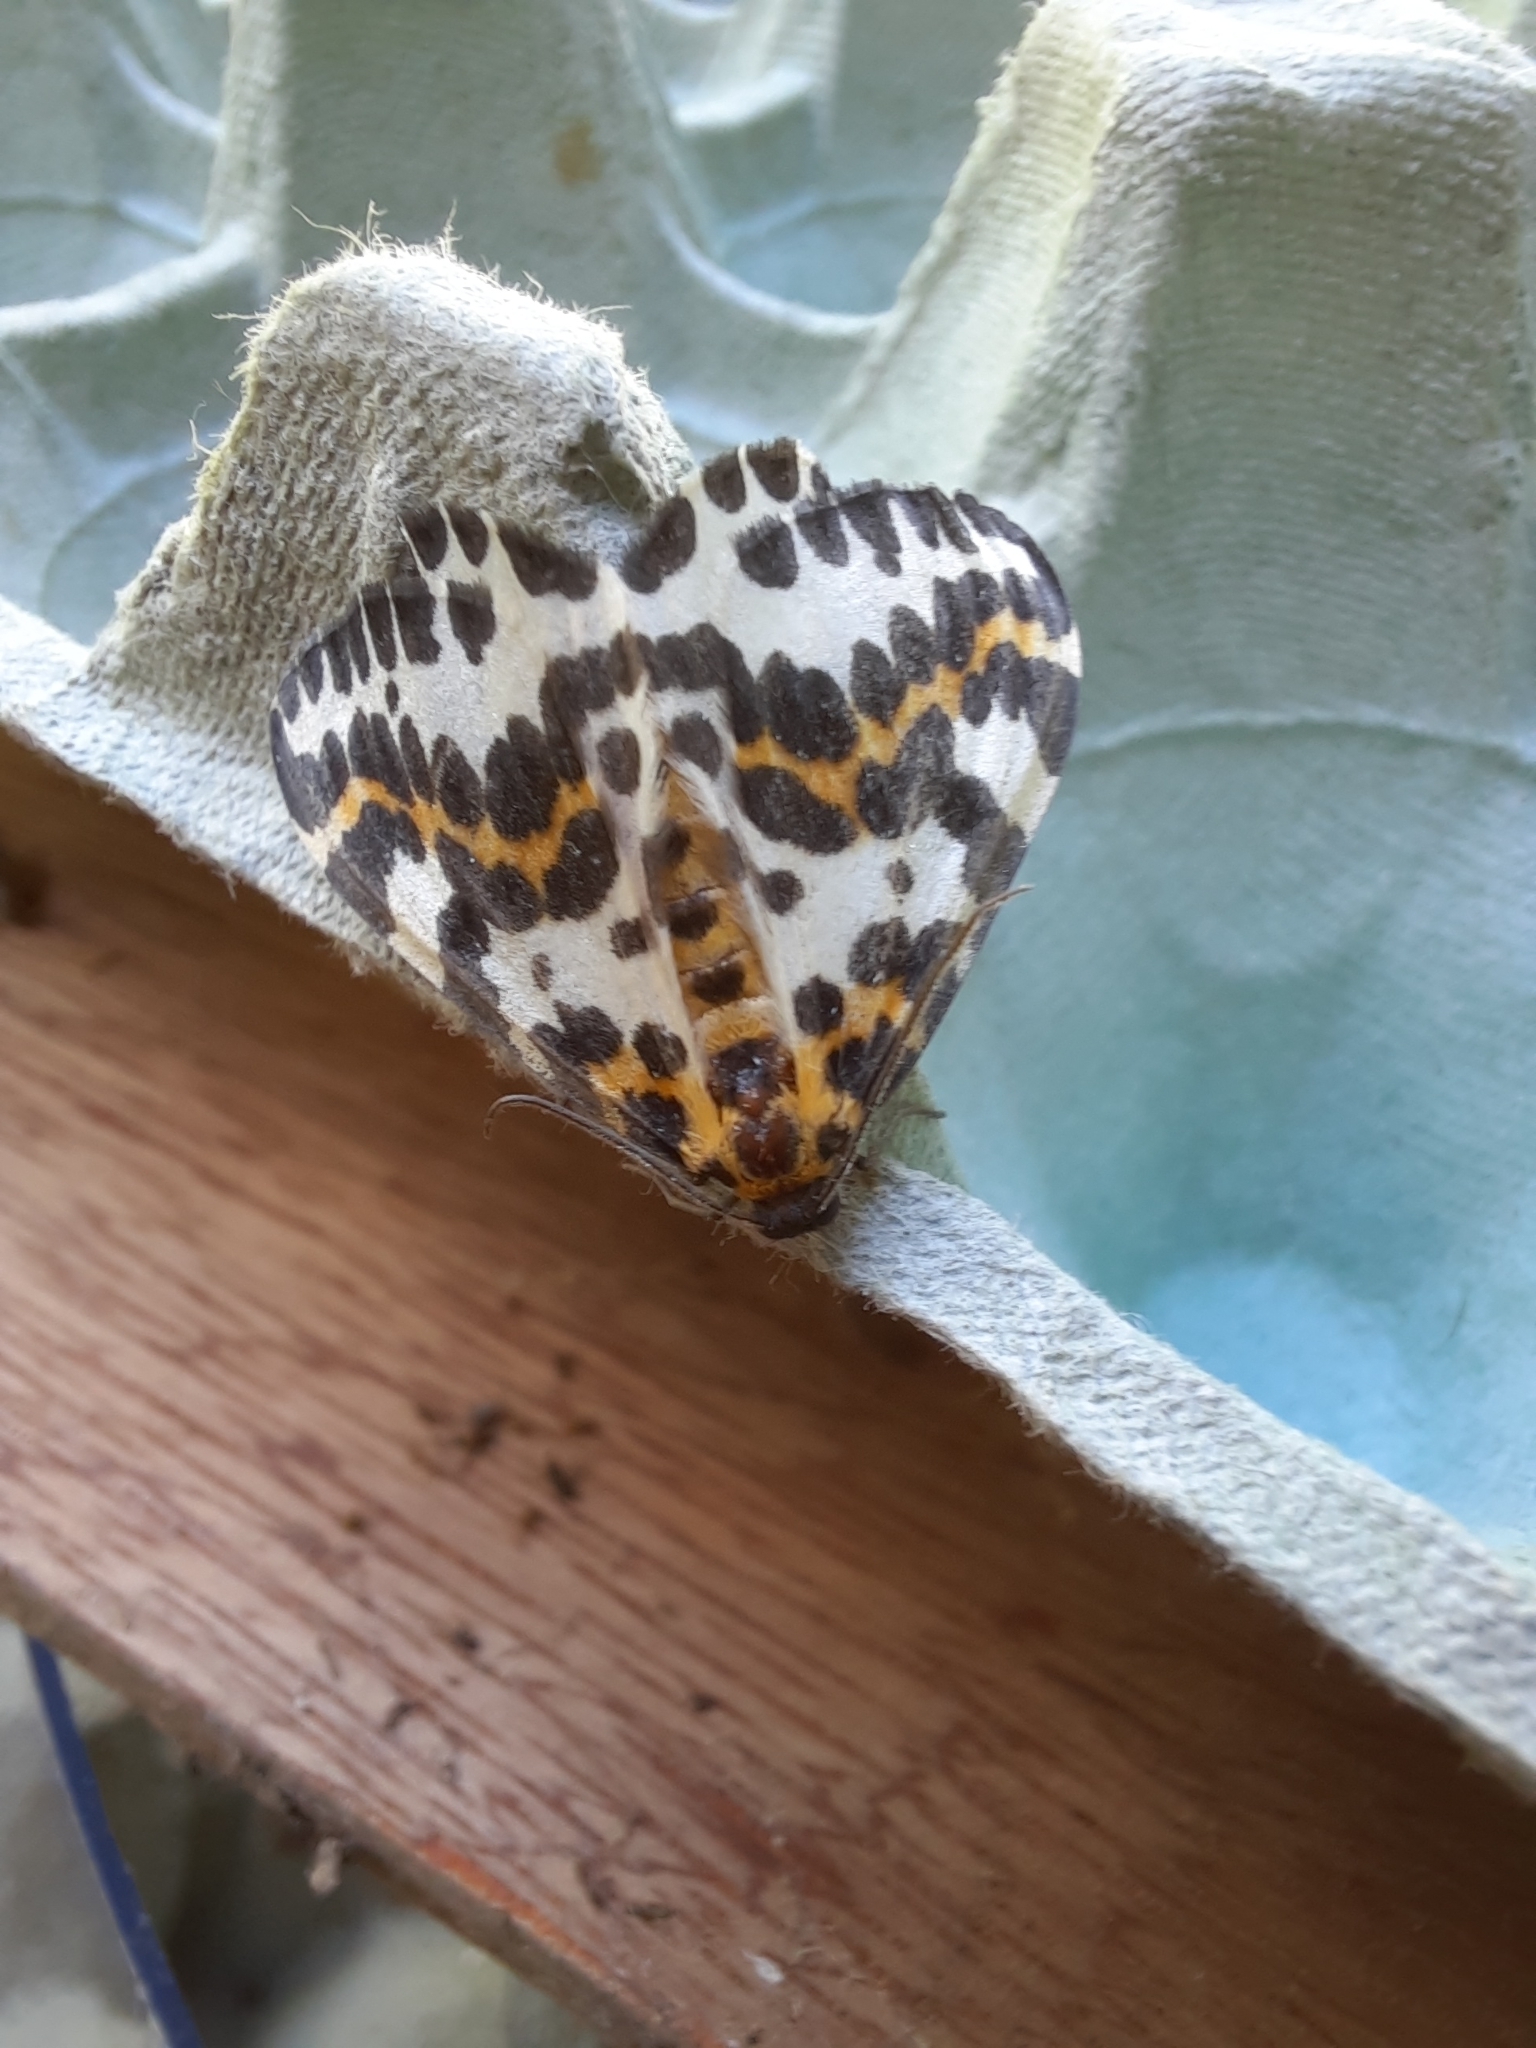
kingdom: Animalia
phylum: Arthropoda
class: Insecta
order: Lepidoptera
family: Geometridae
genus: Abraxas
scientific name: Abraxas grossulariata
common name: Magpie
